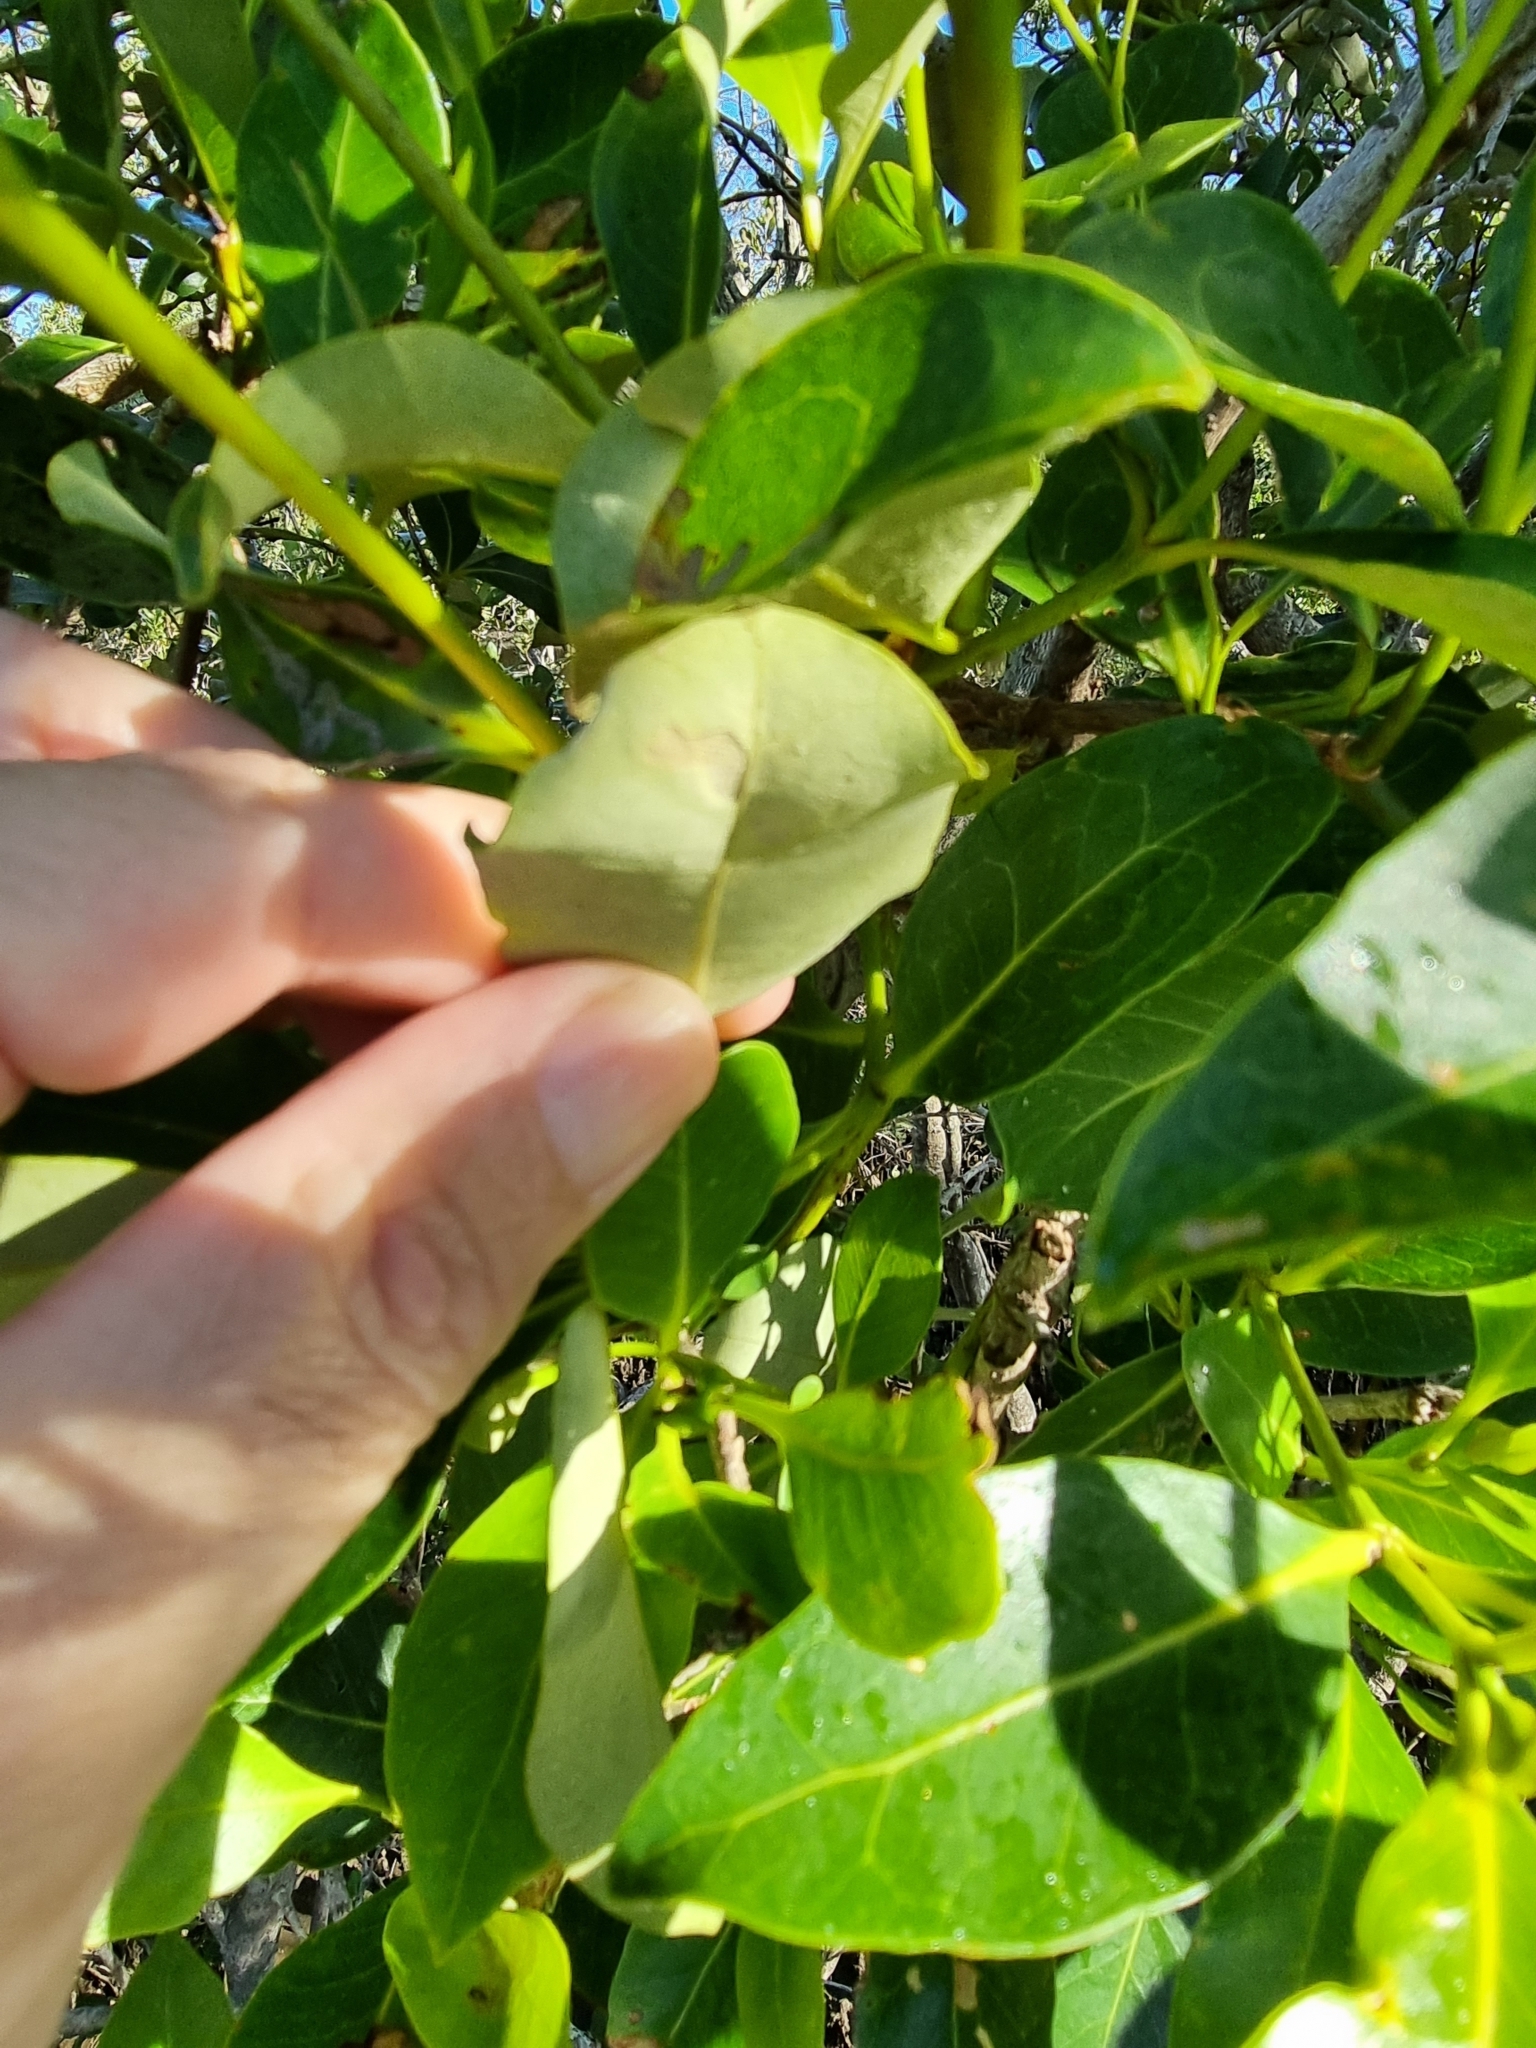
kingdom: Plantae
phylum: Tracheophyta
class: Magnoliopsida
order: Lamiales
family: Acanthaceae
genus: Avicennia
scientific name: Avicennia marina
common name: Gray mangrove
